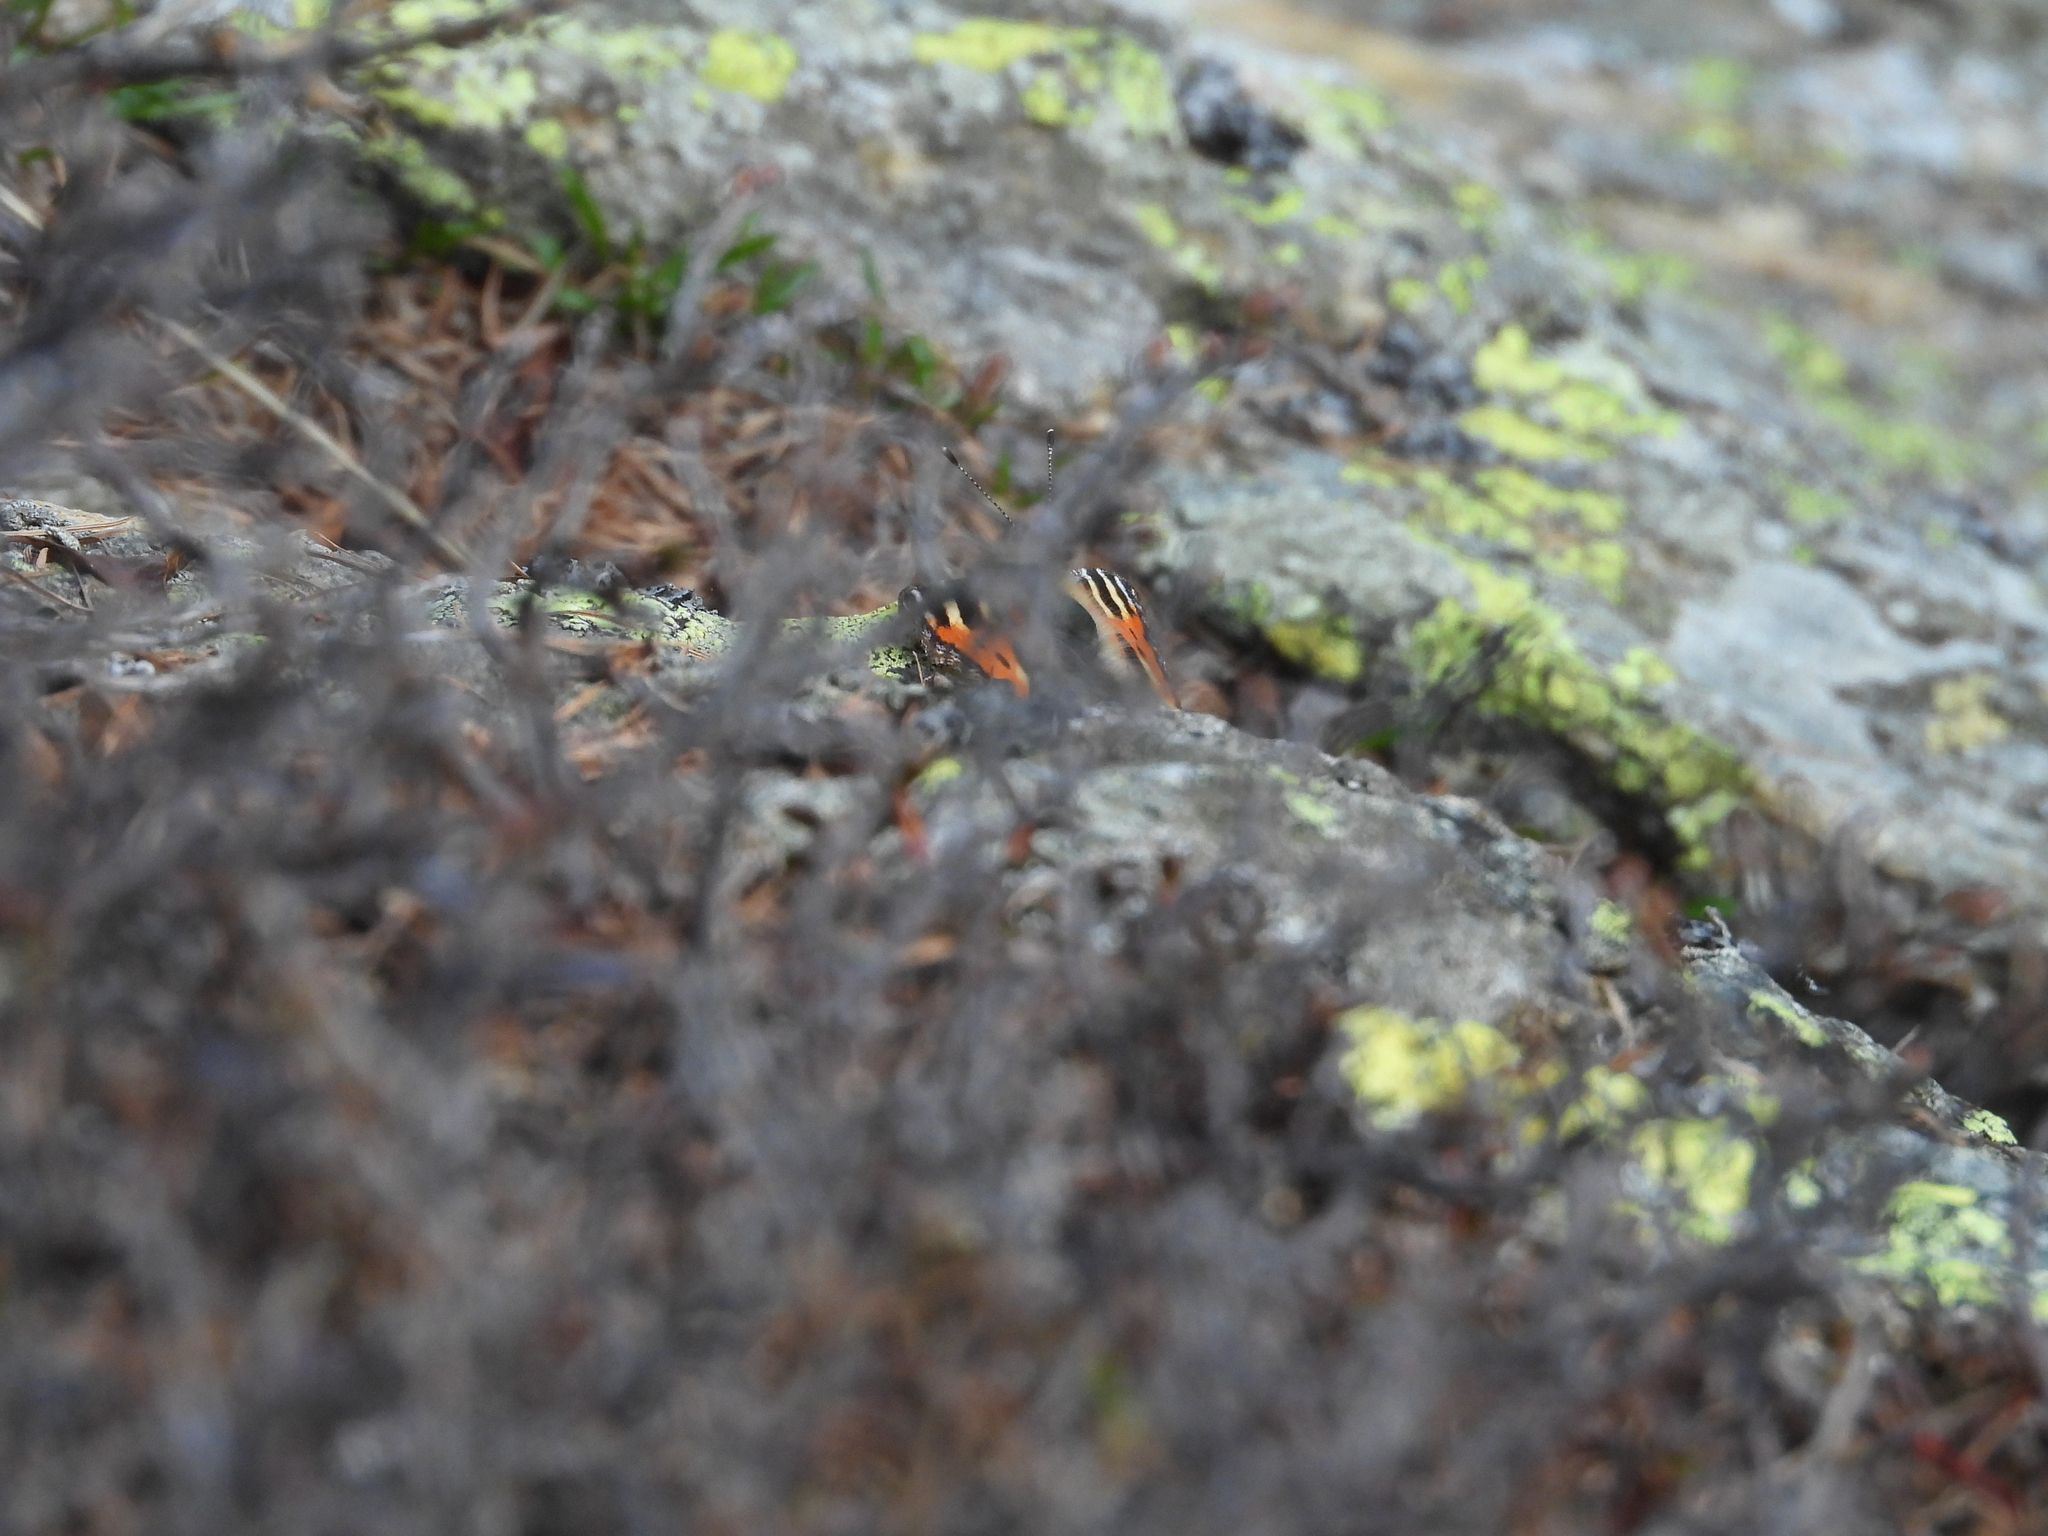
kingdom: Animalia
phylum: Arthropoda
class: Insecta
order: Lepidoptera
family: Nymphalidae
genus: Aglais
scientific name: Aglais urticae
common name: Small tortoiseshell
